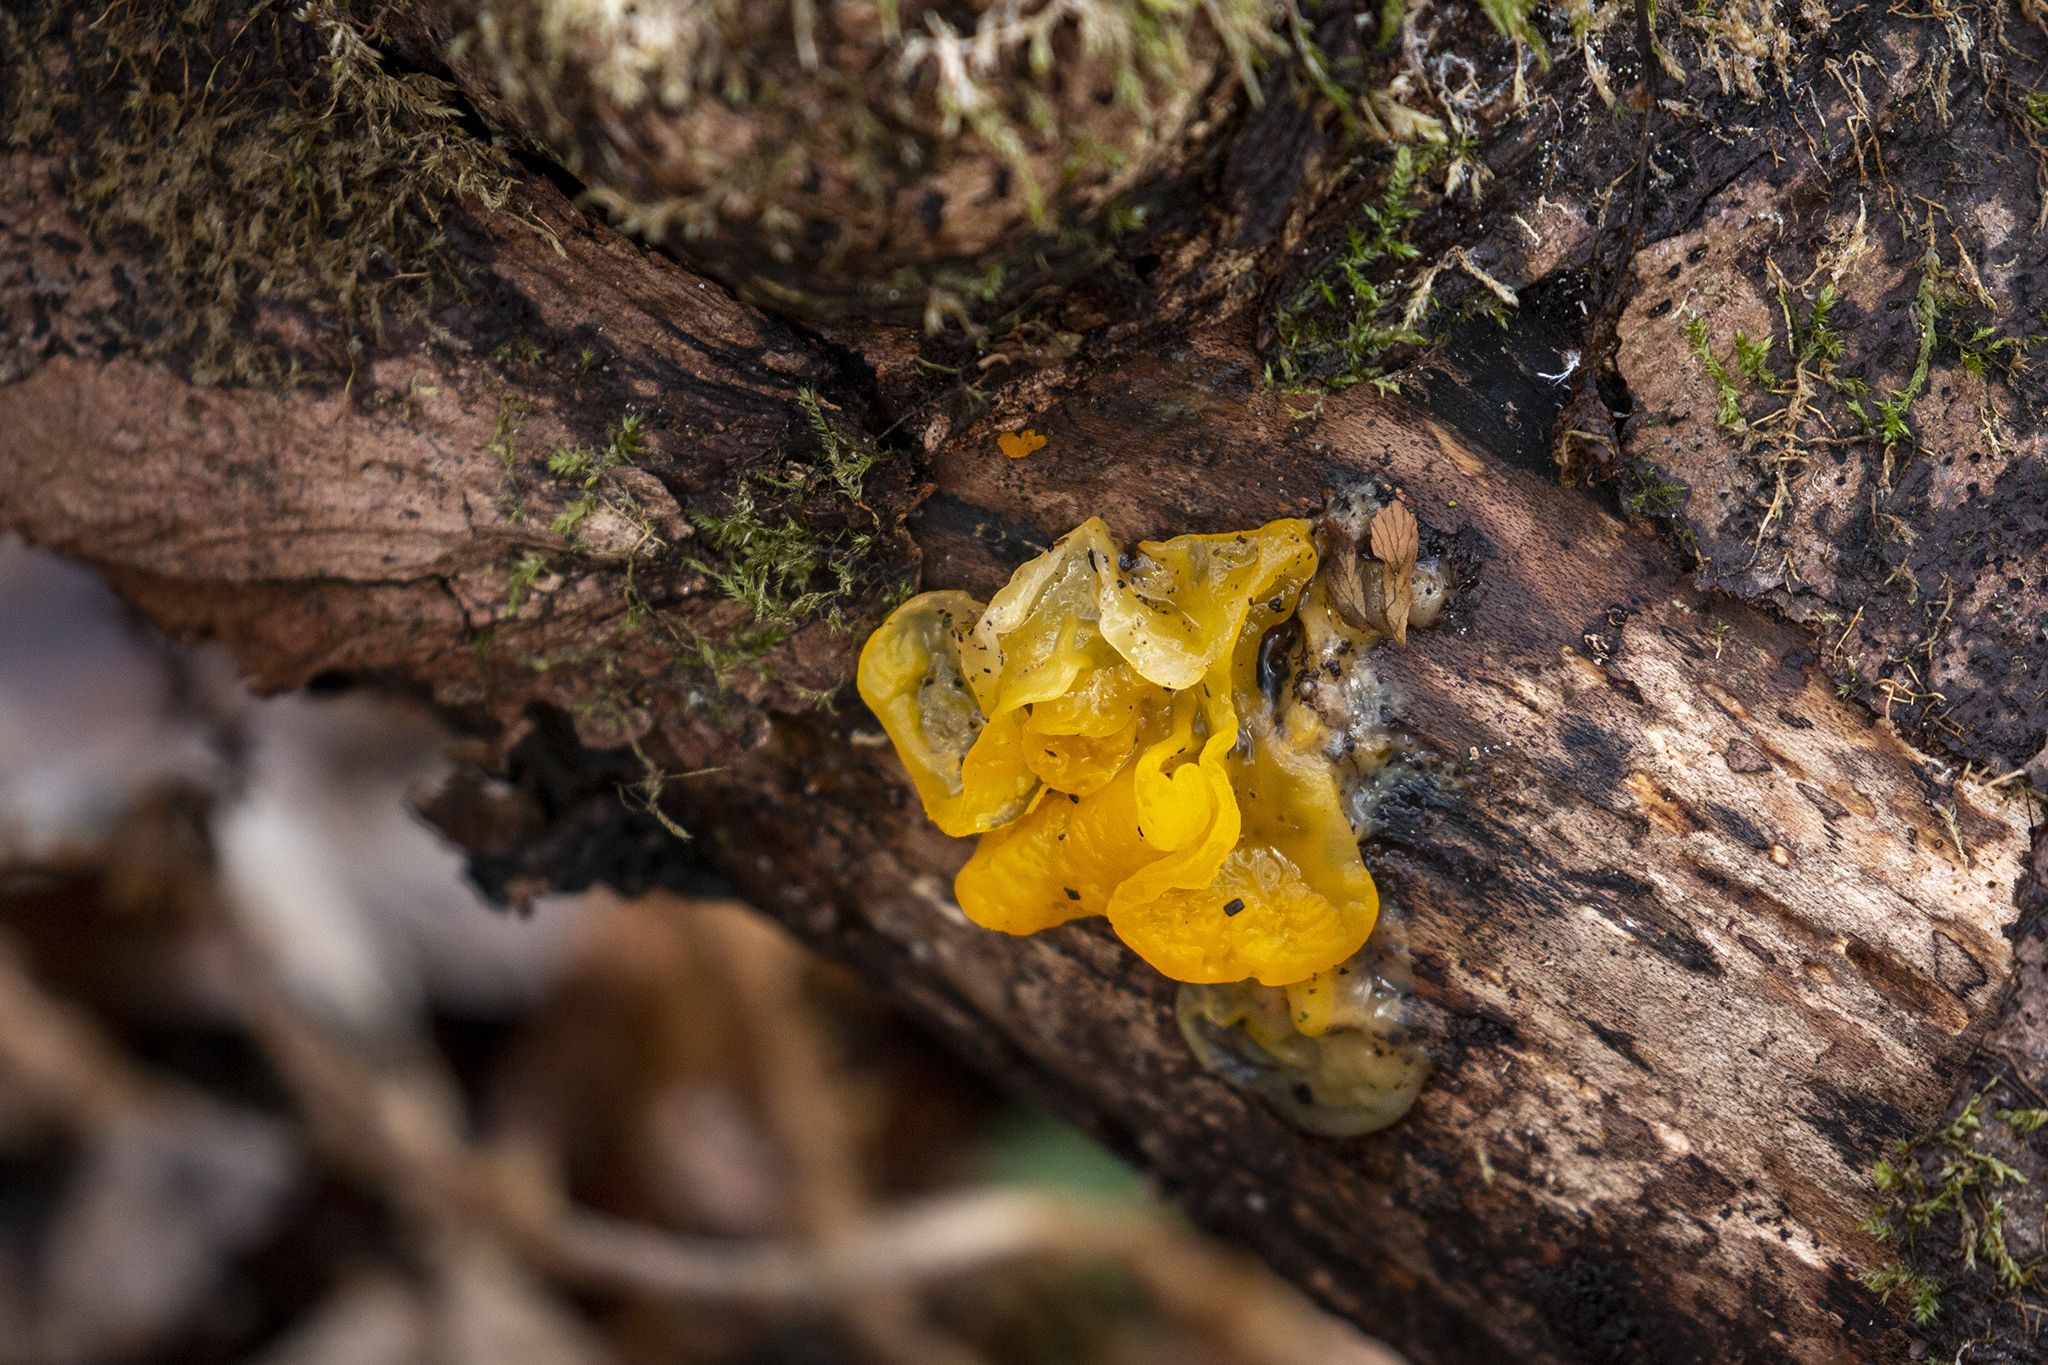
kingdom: Fungi
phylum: Basidiomycota
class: Tremellomycetes
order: Tremellales
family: Tremellaceae
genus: Tremella
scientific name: Tremella mesenterica
